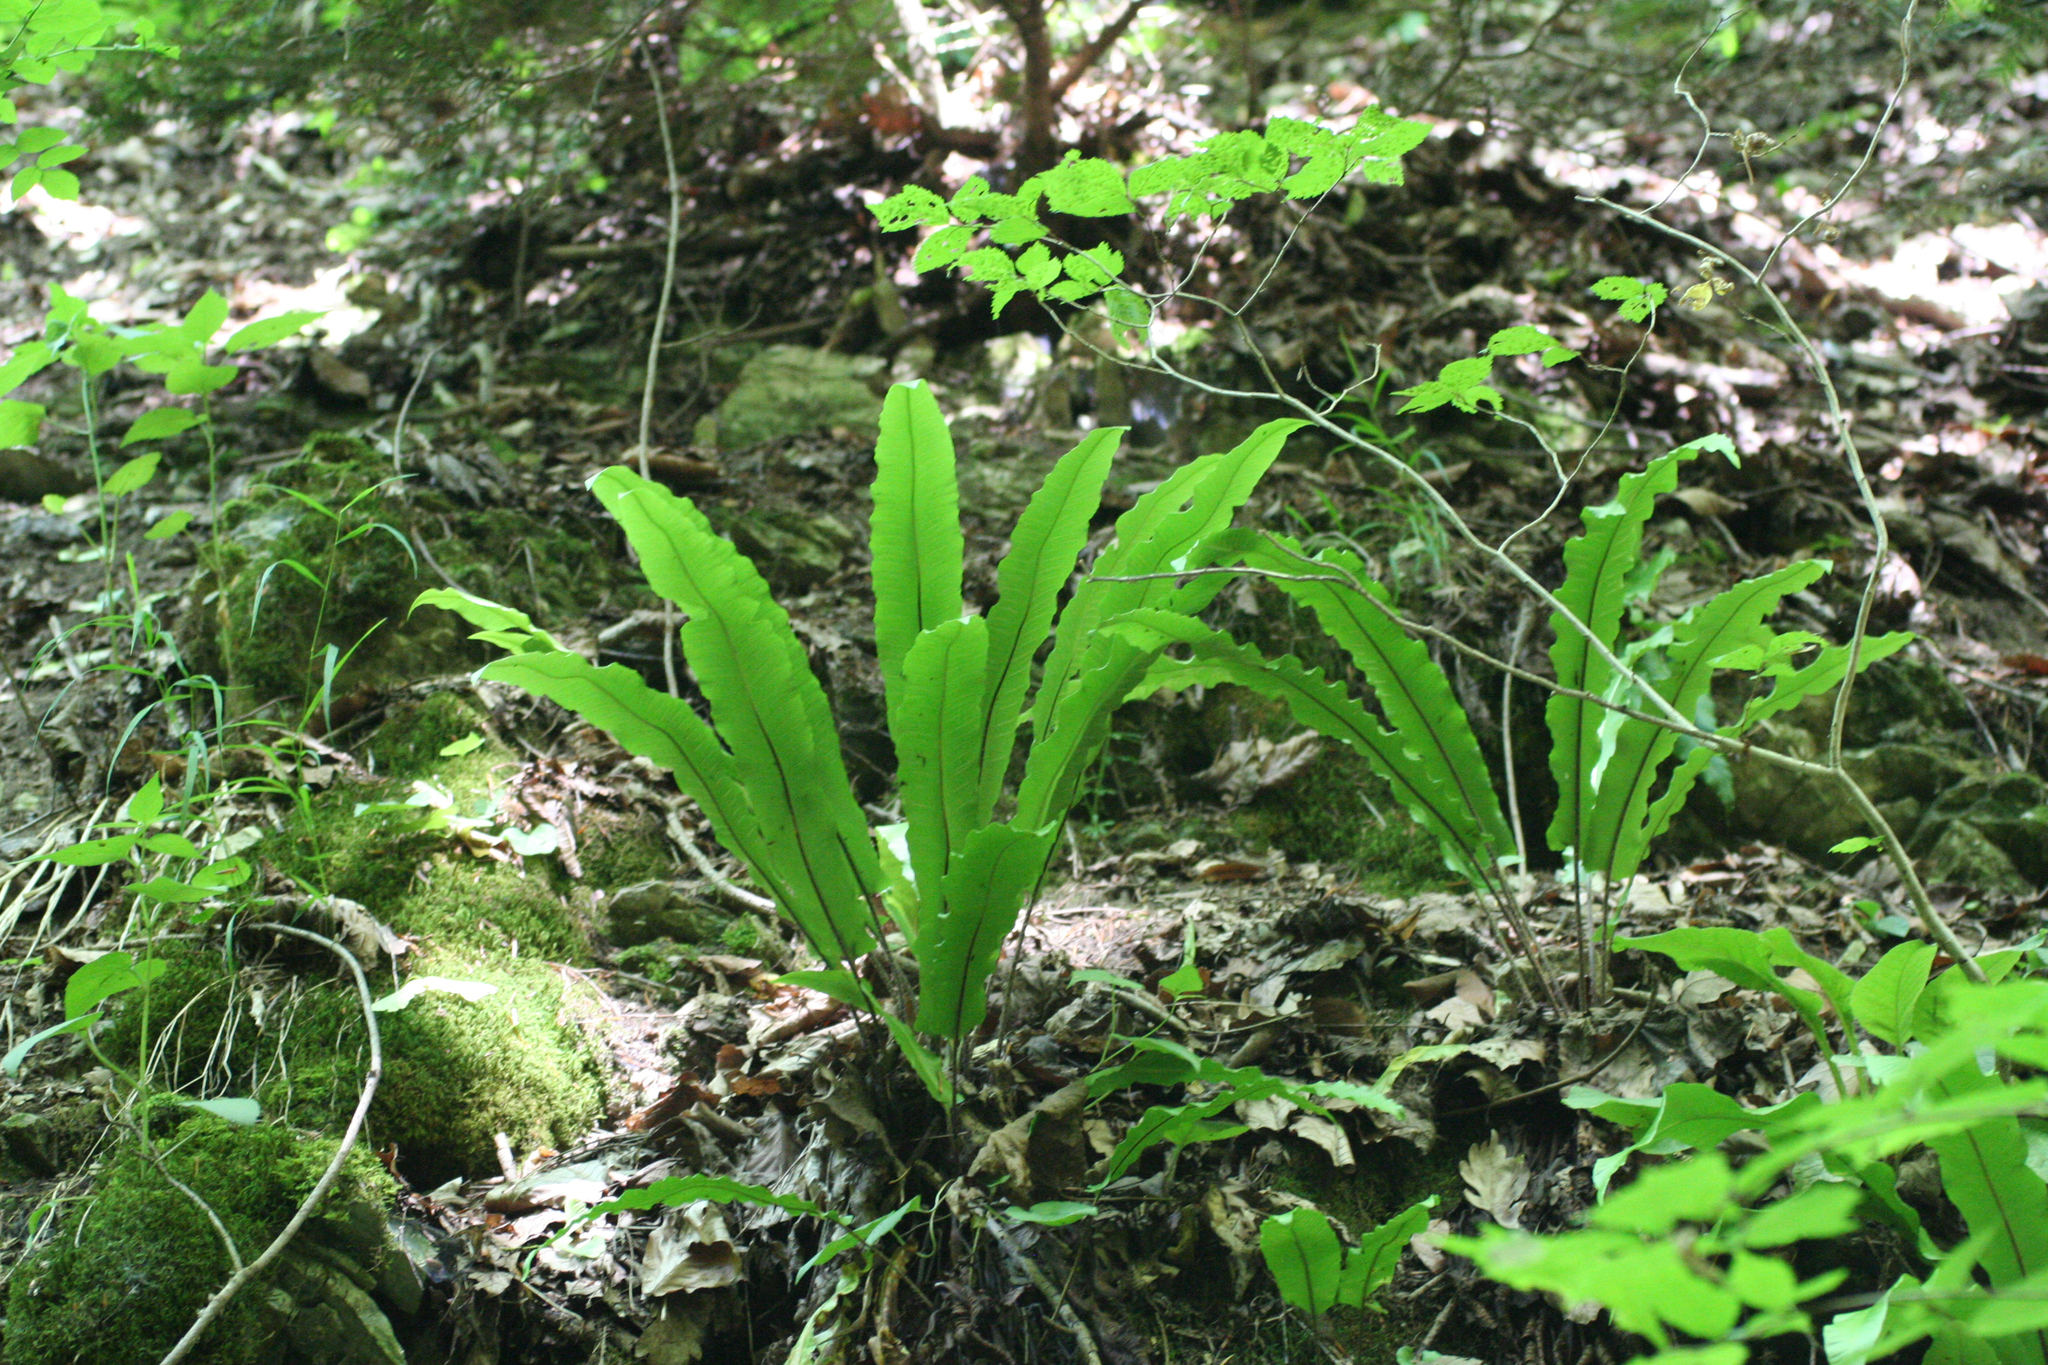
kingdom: Plantae
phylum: Tracheophyta
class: Polypodiopsida
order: Polypodiales
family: Aspleniaceae
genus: Asplenium
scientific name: Asplenium scolopendrium
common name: Hart's-tongue fern
